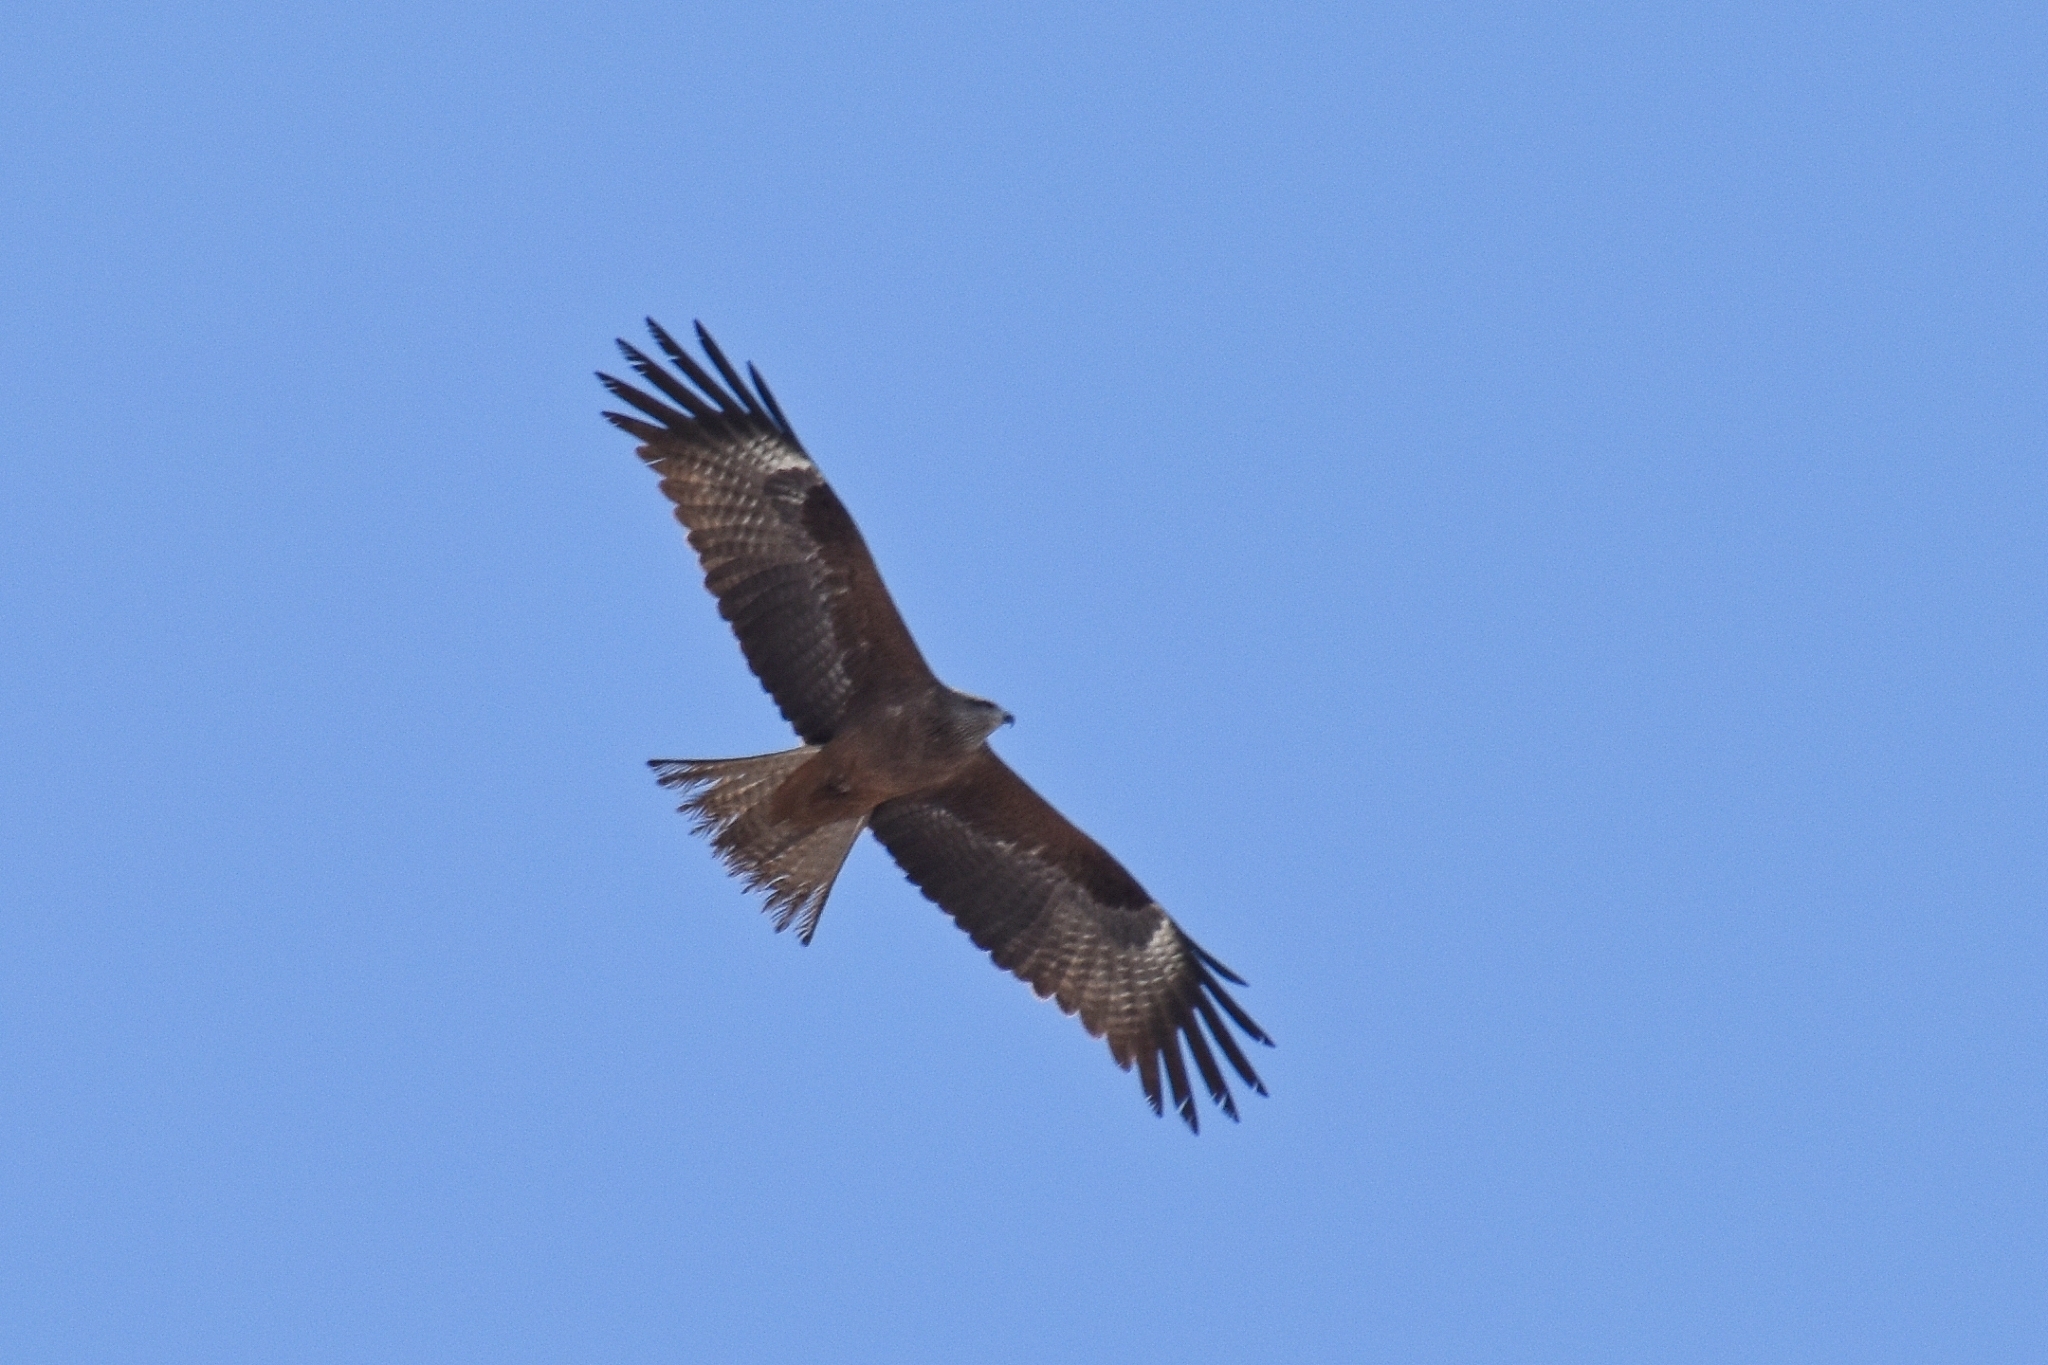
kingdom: Animalia
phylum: Chordata
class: Aves
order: Accipitriformes
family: Accipitridae
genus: Milvus
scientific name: Milvus migrans
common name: Black kite
